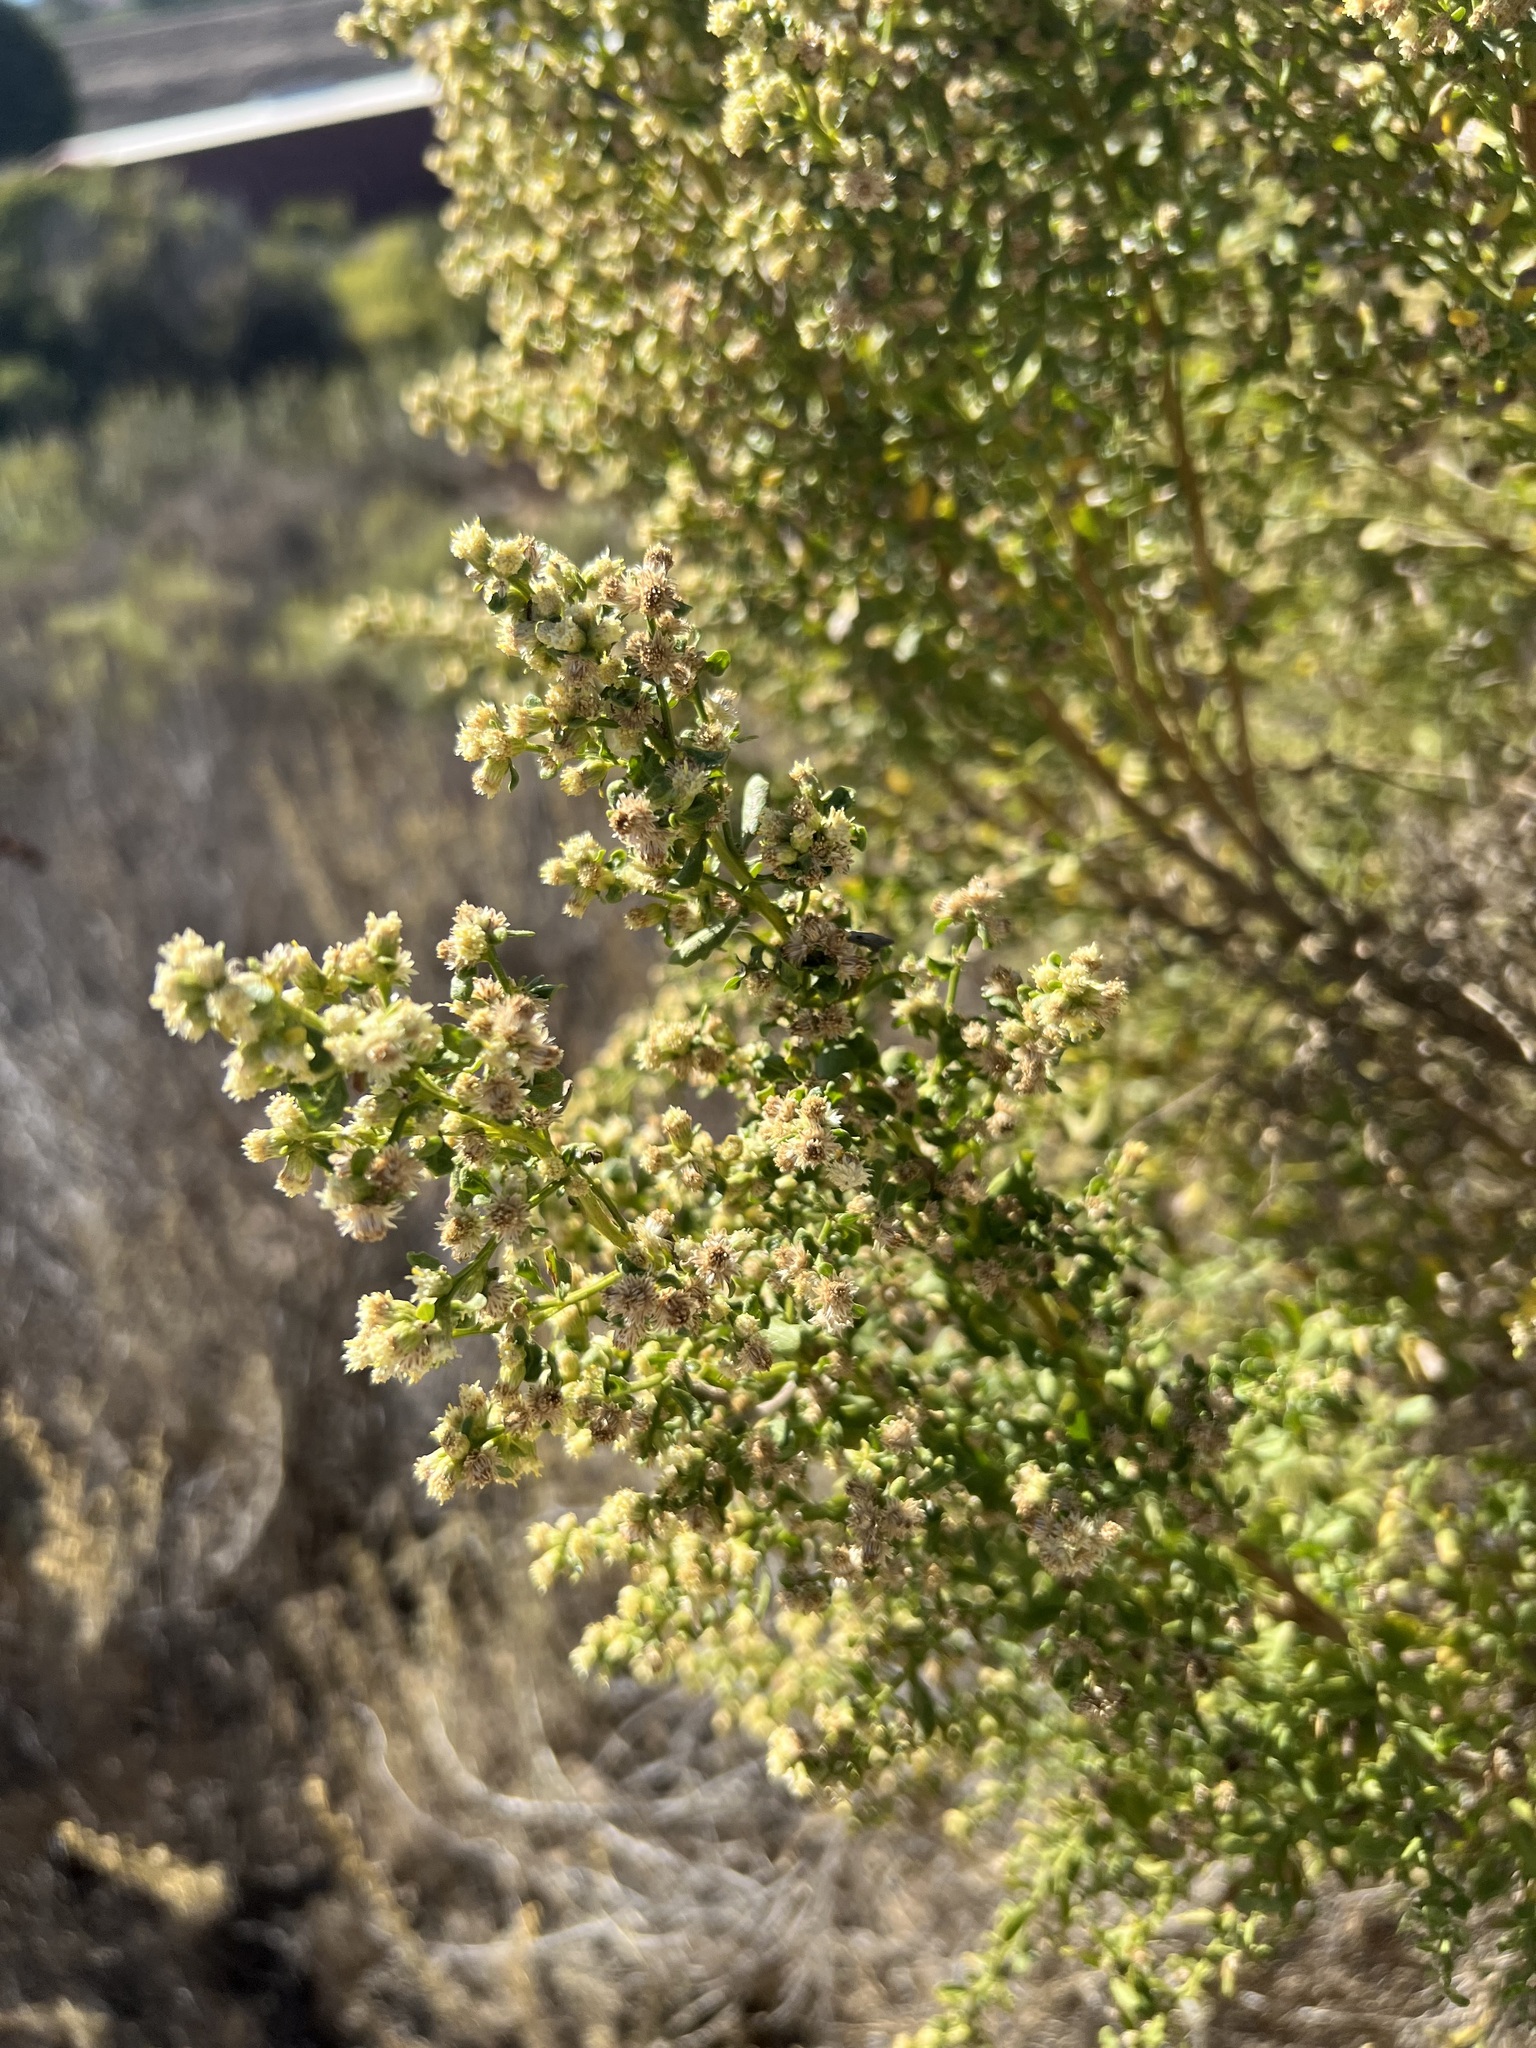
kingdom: Plantae
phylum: Tracheophyta
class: Magnoliopsida
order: Asterales
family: Asteraceae
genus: Baccharis
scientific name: Baccharis pilularis
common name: Coyotebrush
